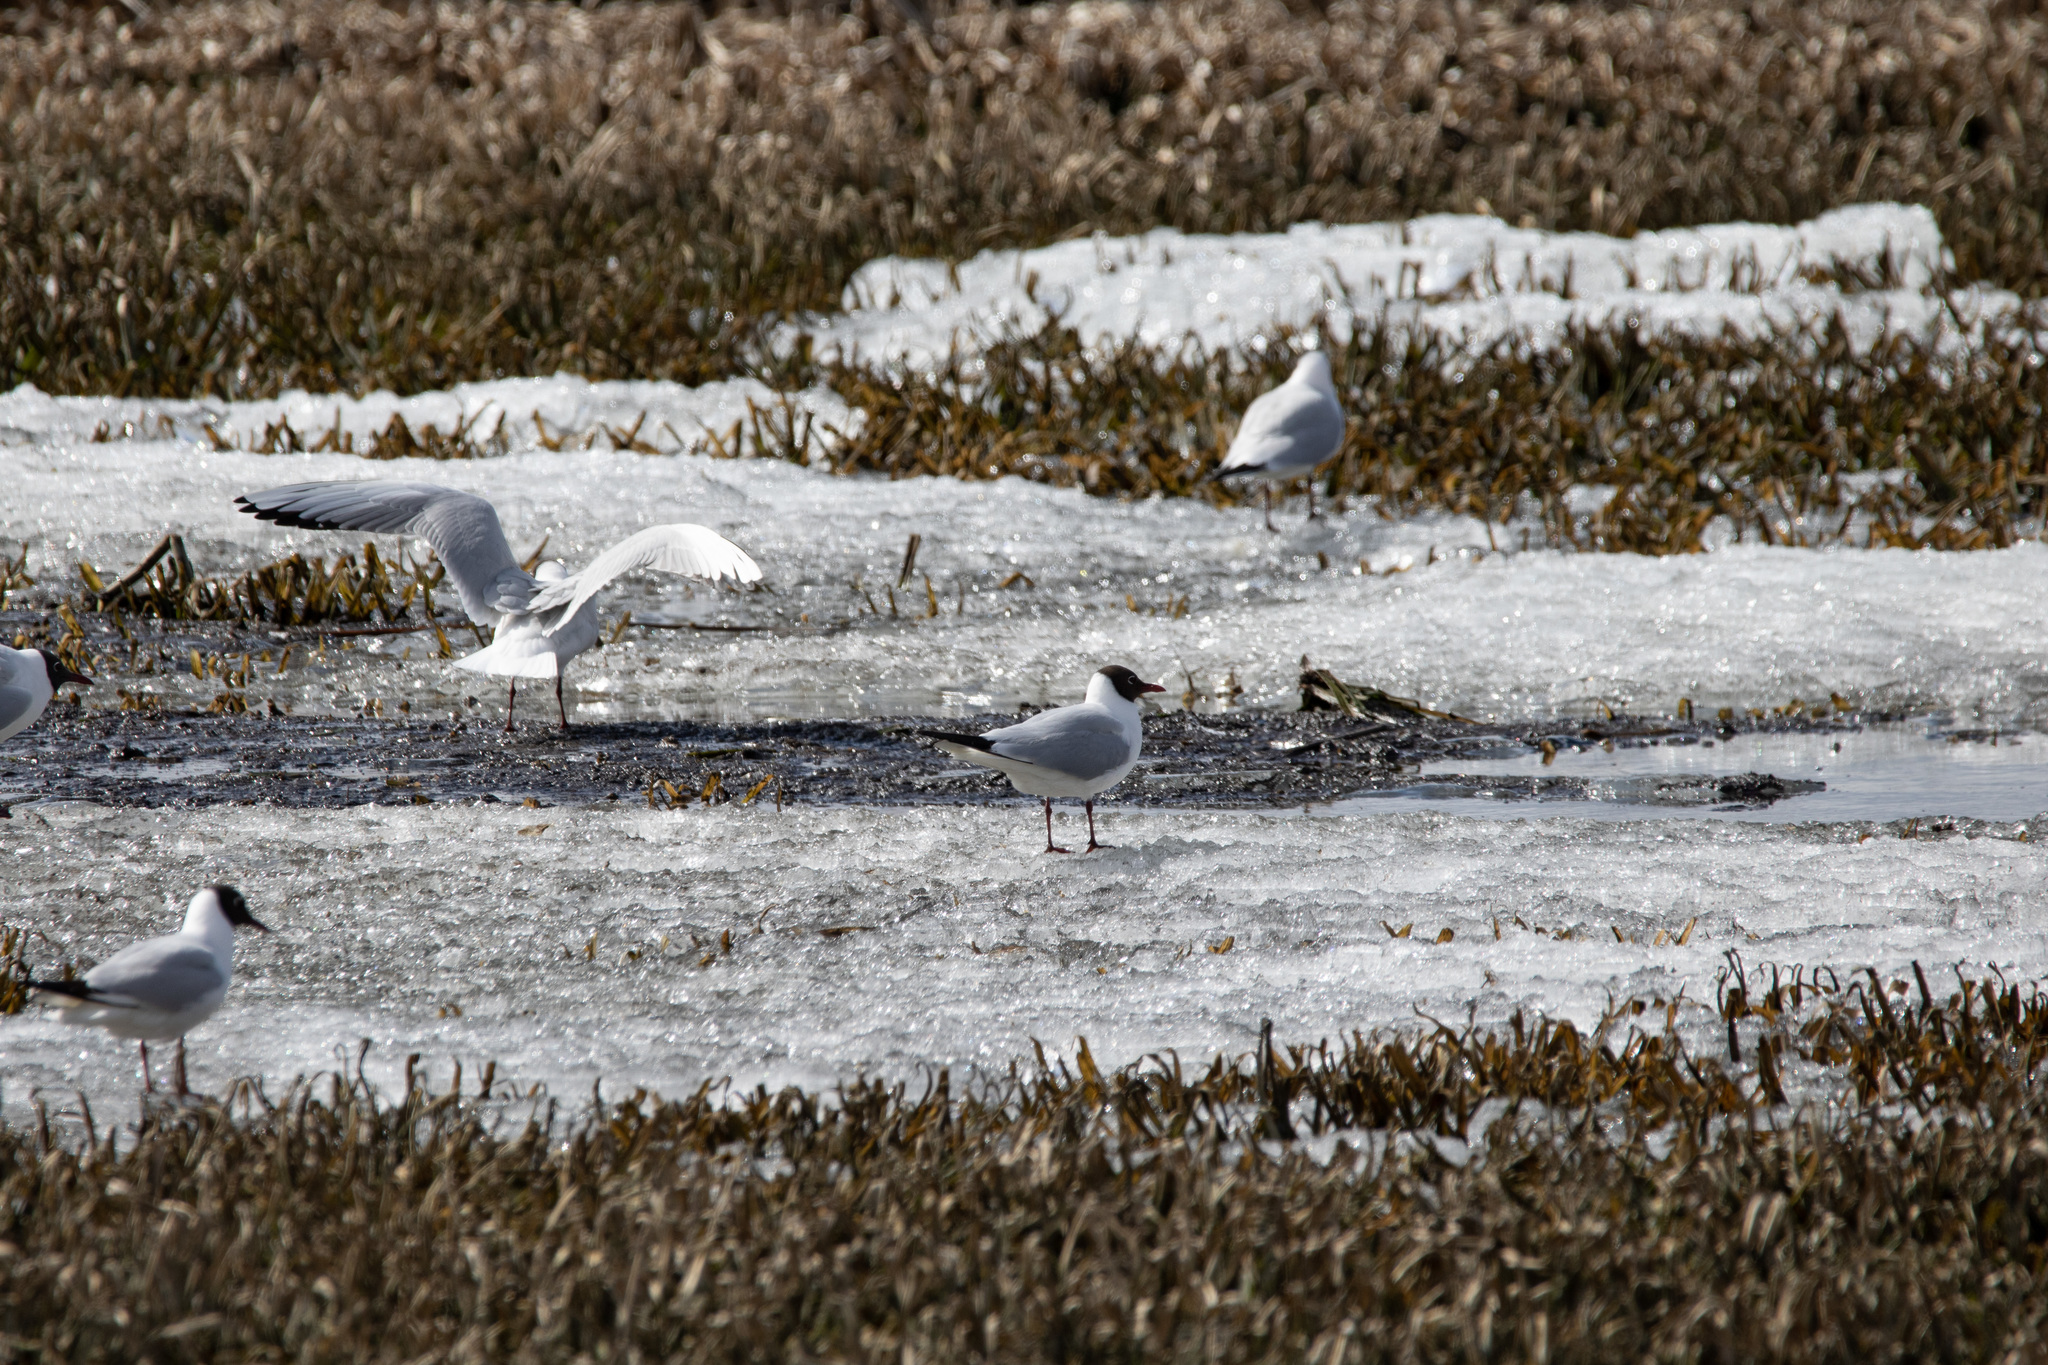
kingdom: Animalia
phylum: Chordata
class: Aves
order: Charadriiformes
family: Laridae
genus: Chroicocephalus
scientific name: Chroicocephalus ridibundus
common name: Black-headed gull
